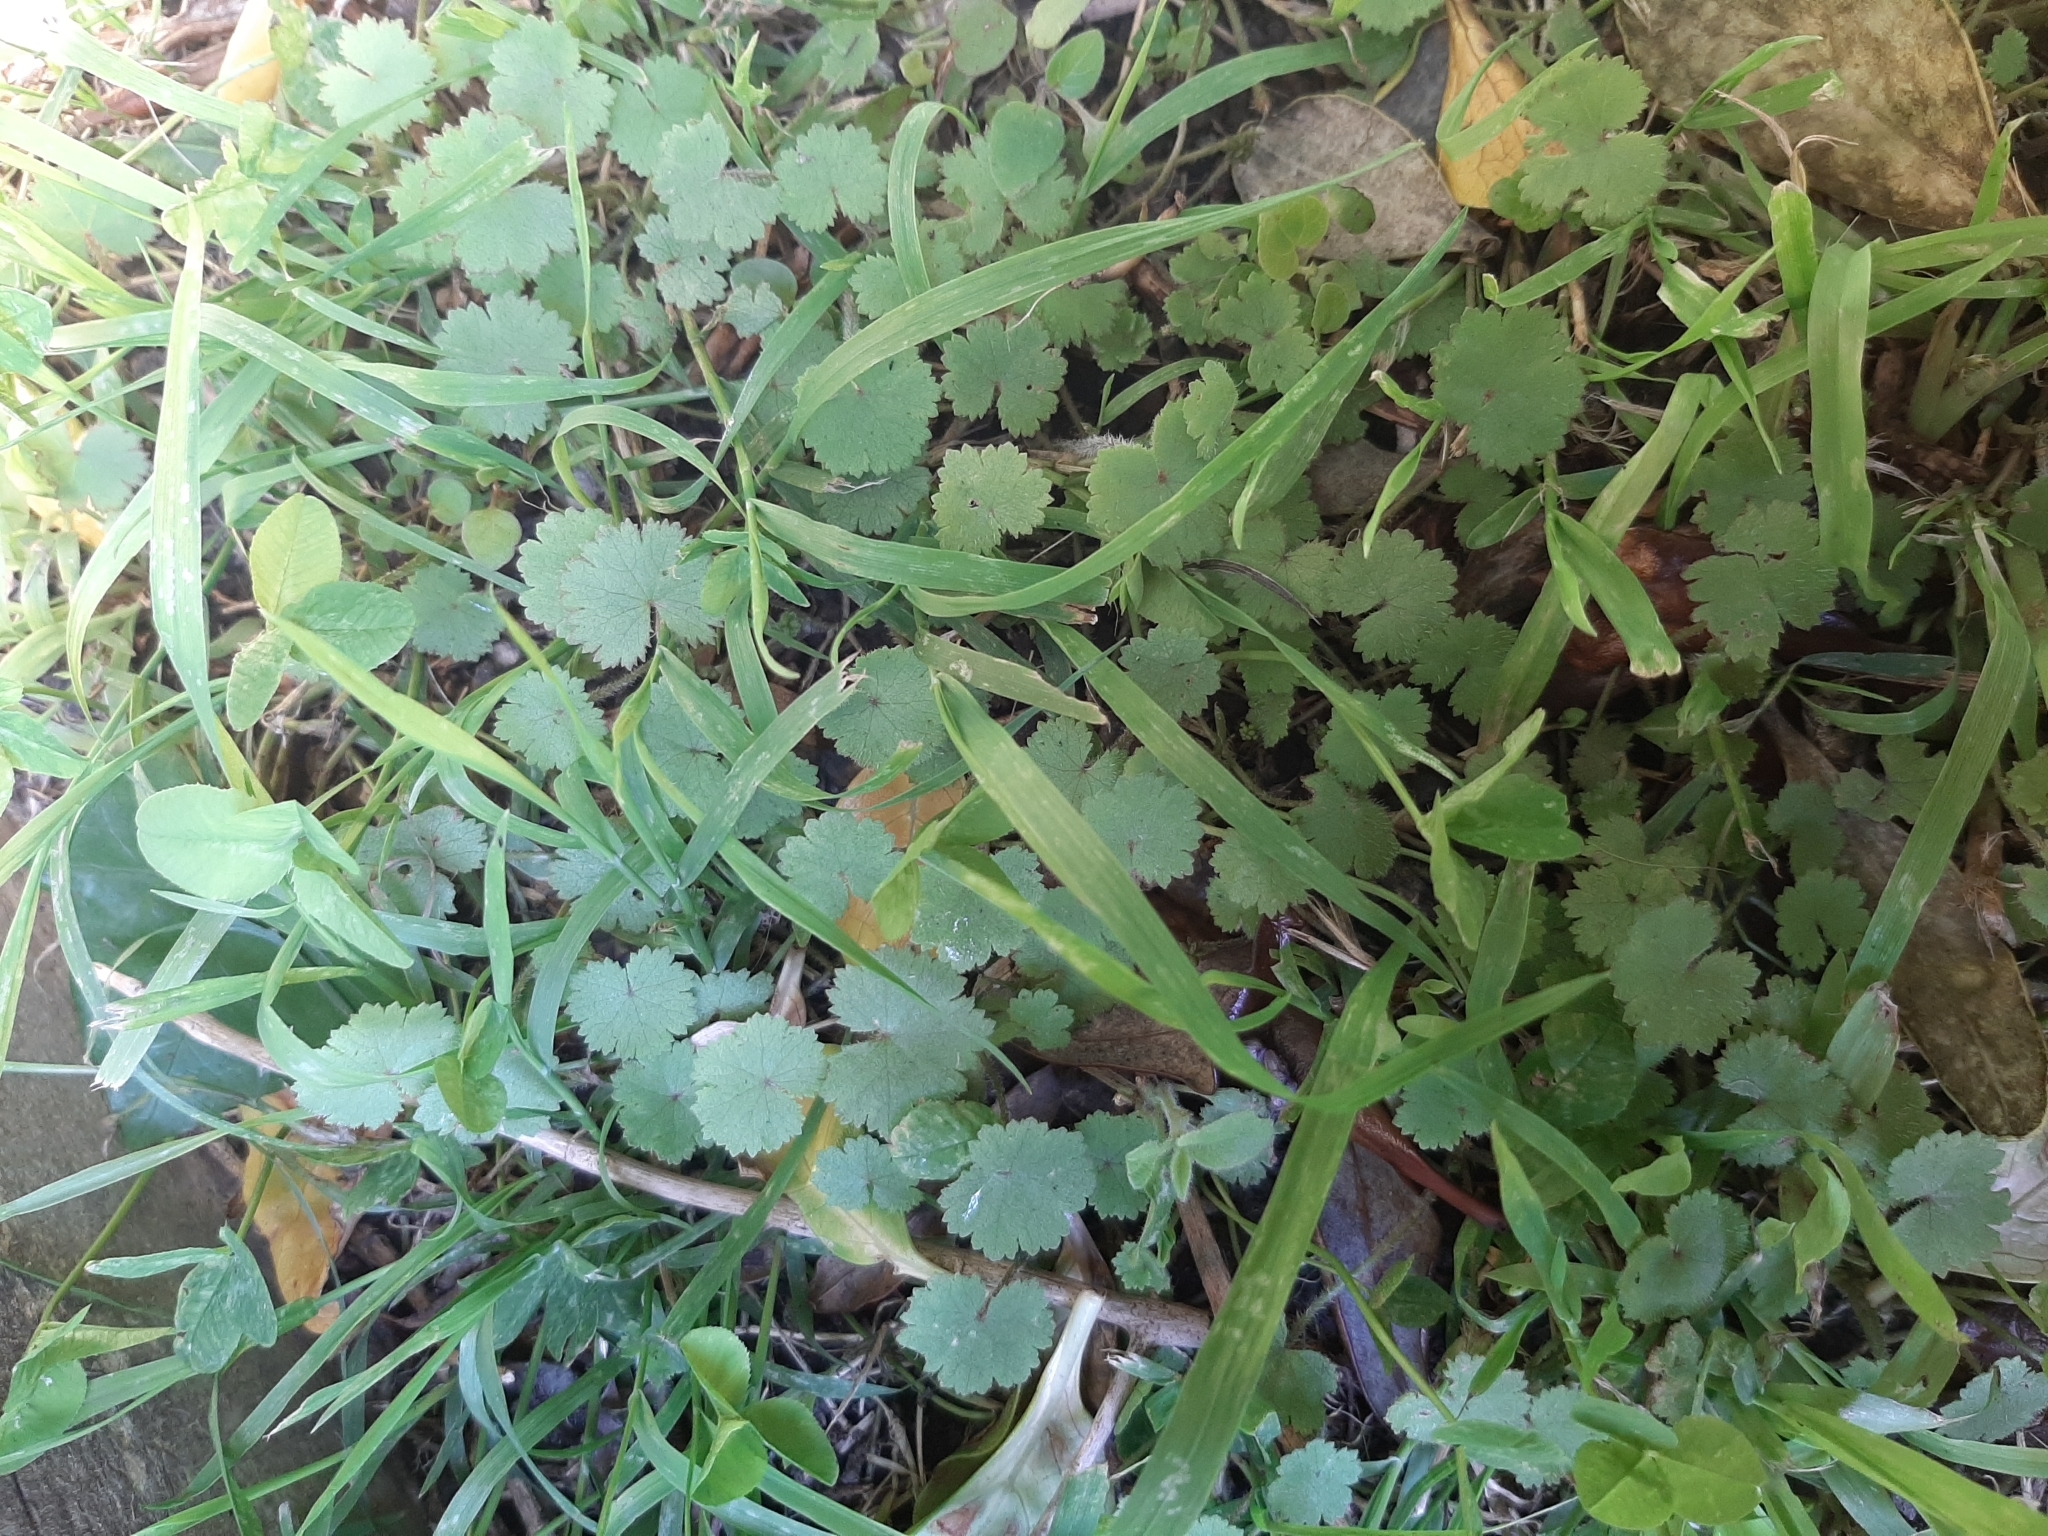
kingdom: Plantae
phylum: Tracheophyta
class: Magnoliopsida
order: Apiales
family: Araliaceae
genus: Hydrocotyle
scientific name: Hydrocotyle moschata
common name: Hairy pennywort
